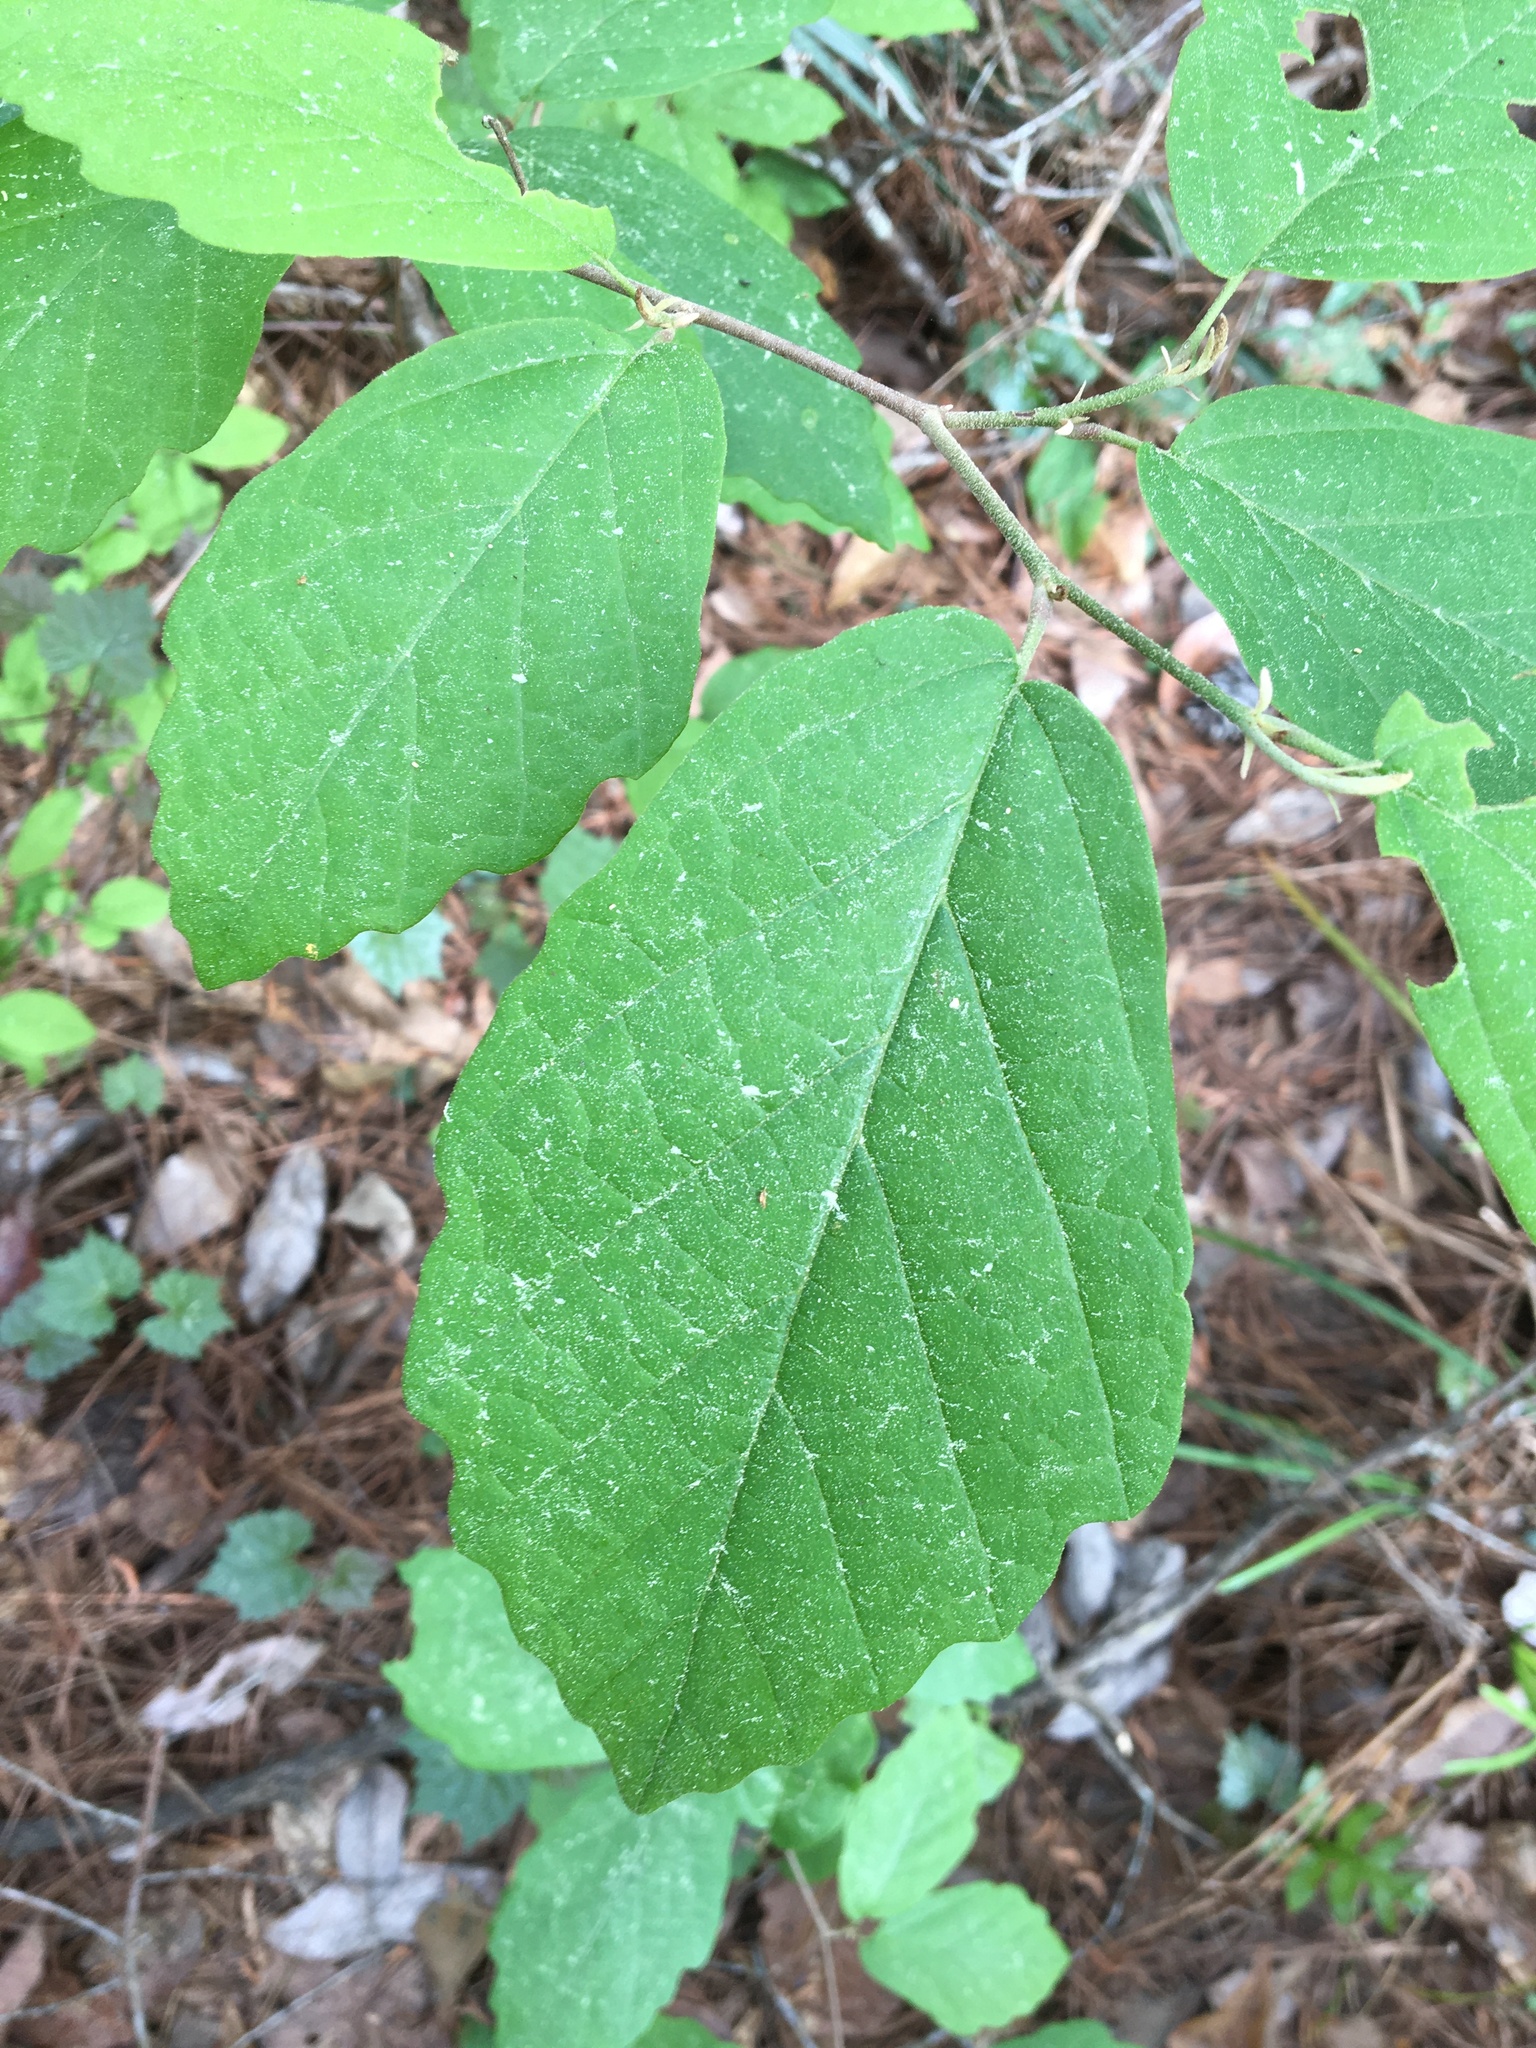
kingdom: Plantae
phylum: Tracheophyta
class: Magnoliopsida
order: Saxifragales
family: Hamamelidaceae
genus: Hamamelis
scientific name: Hamamelis virginiana
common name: Witch-hazel
